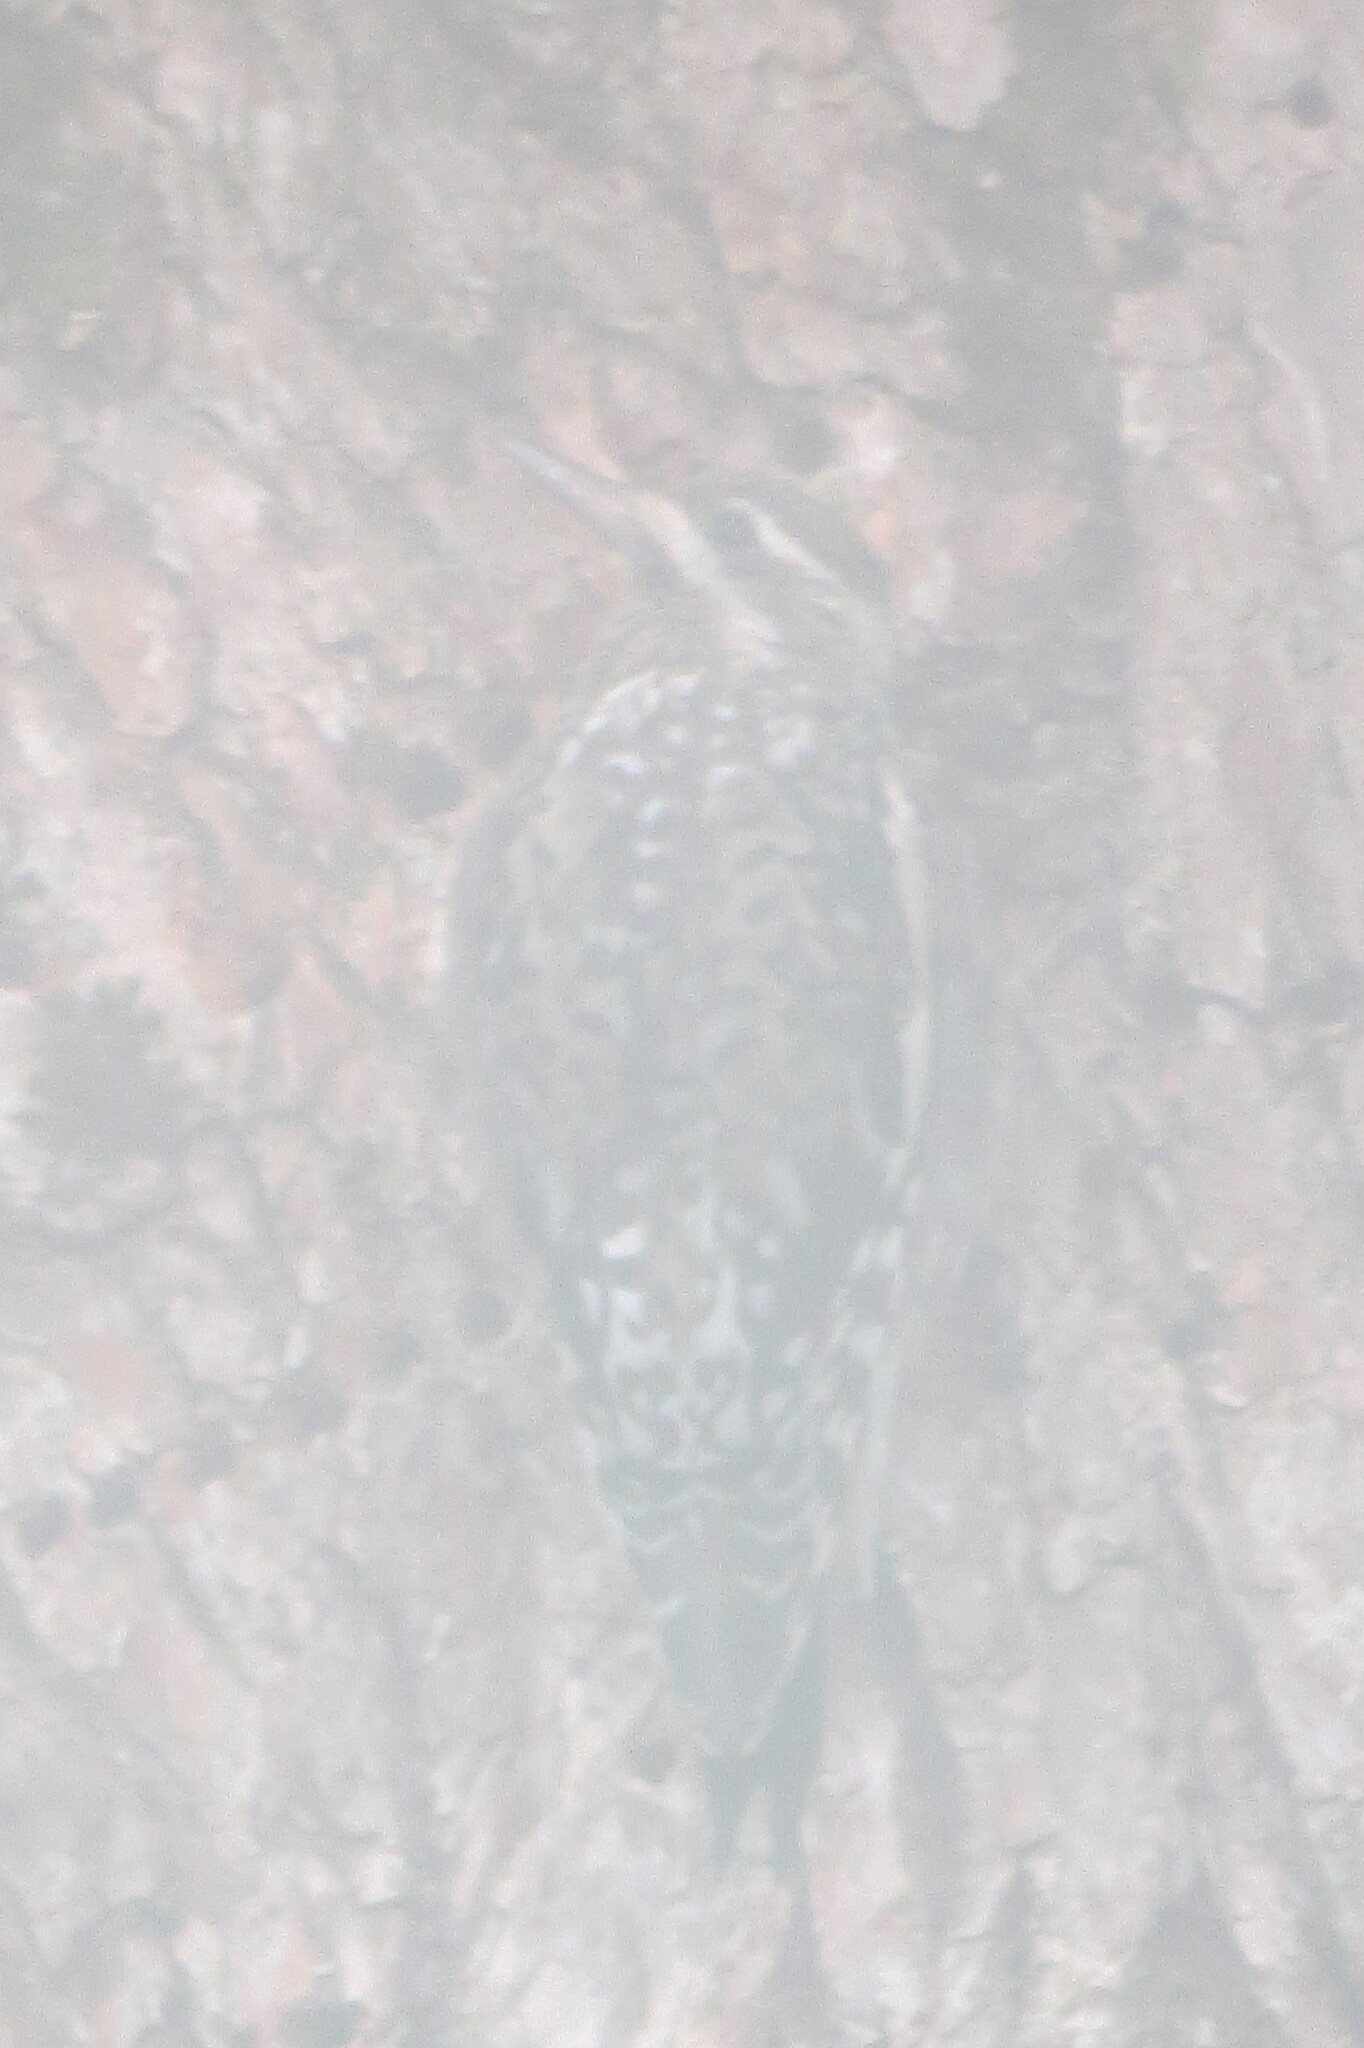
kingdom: Animalia
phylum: Chordata
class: Aves
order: Piciformes
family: Picidae
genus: Sphyrapicus
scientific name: Sphyrapicus varius
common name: Yellow-bellied sapsucker
